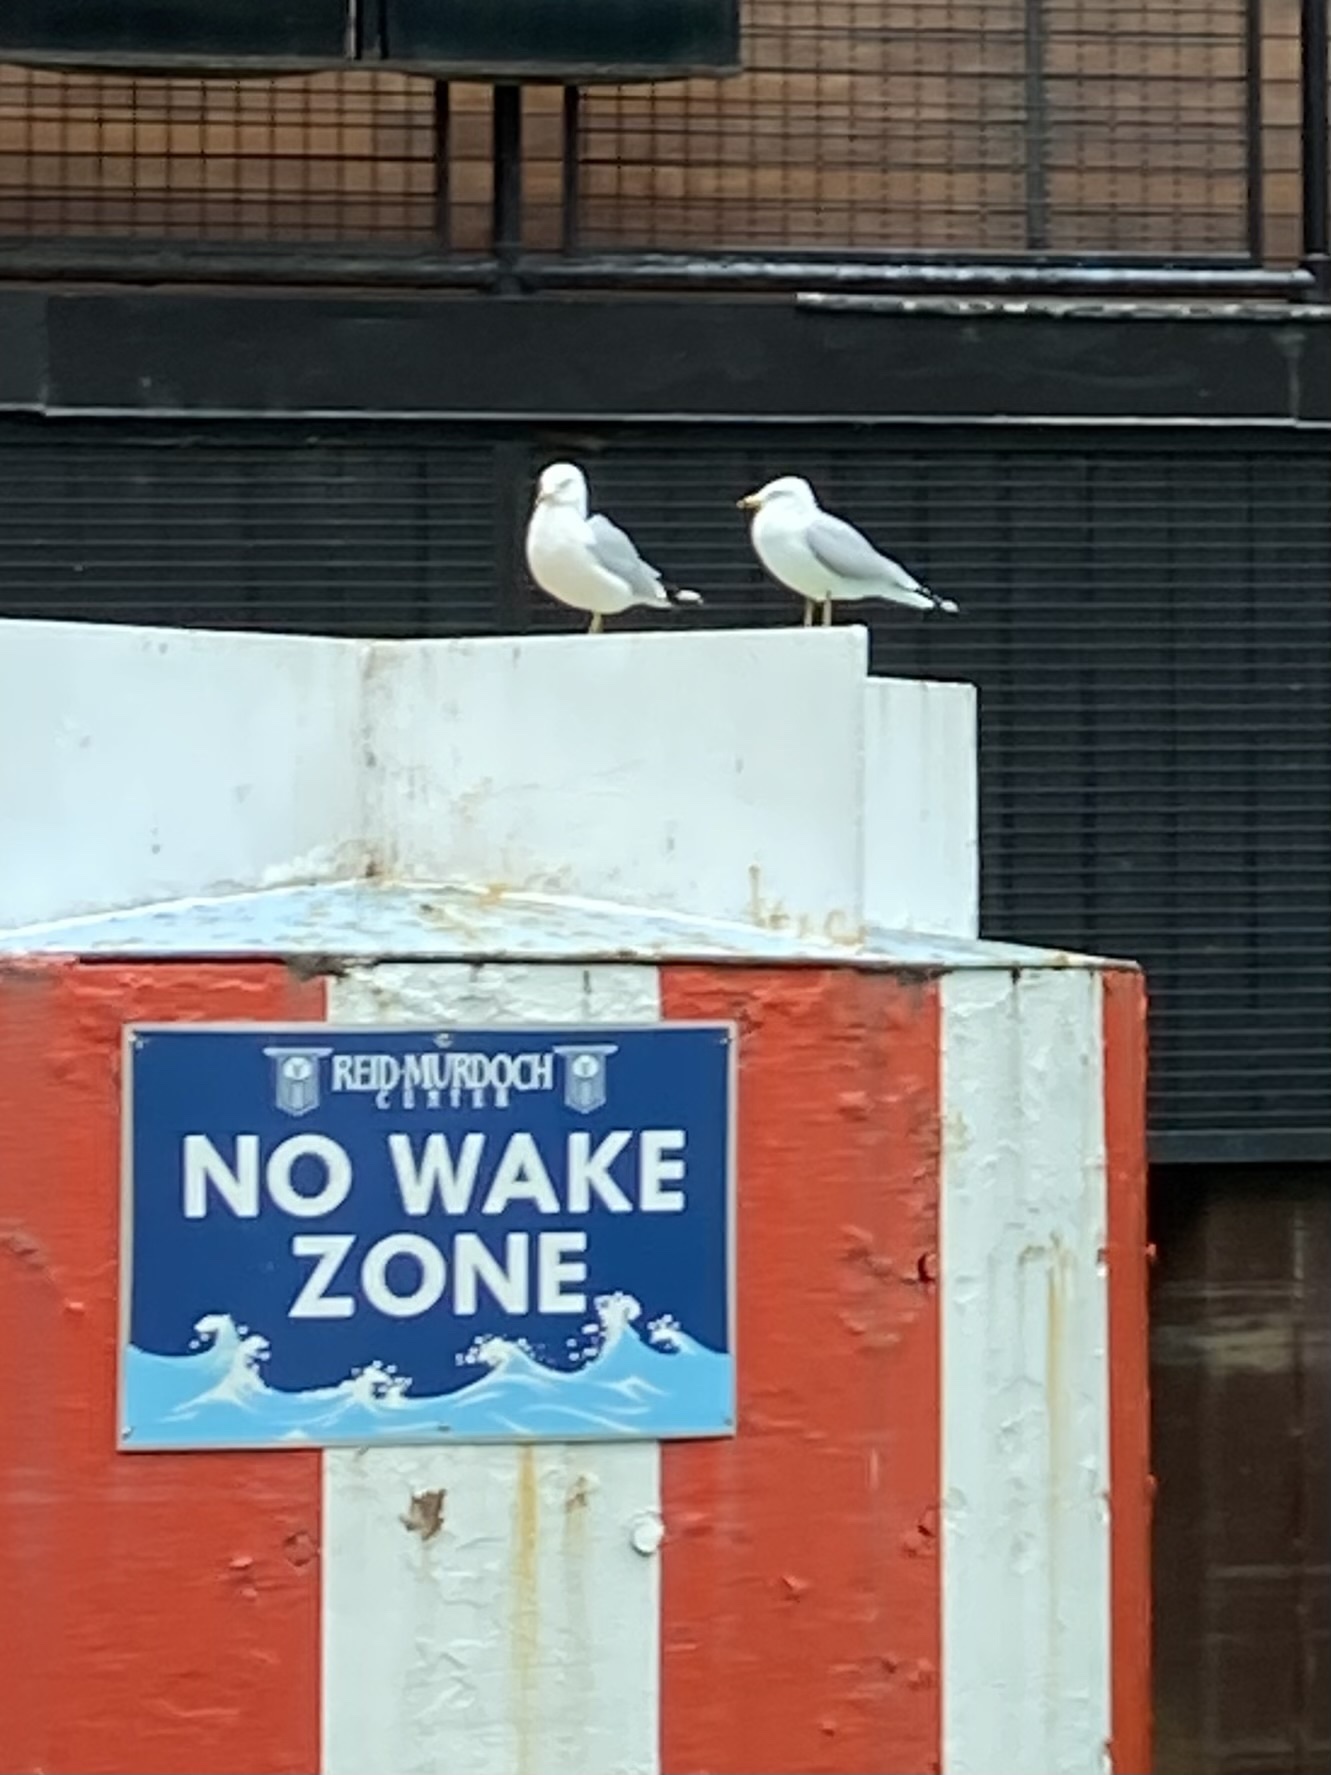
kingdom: Animalia
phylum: Chordata
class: Aves
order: Charadriiformes
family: Laridae
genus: Larus
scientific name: Larus delawarensis
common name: Ring-billed gull
